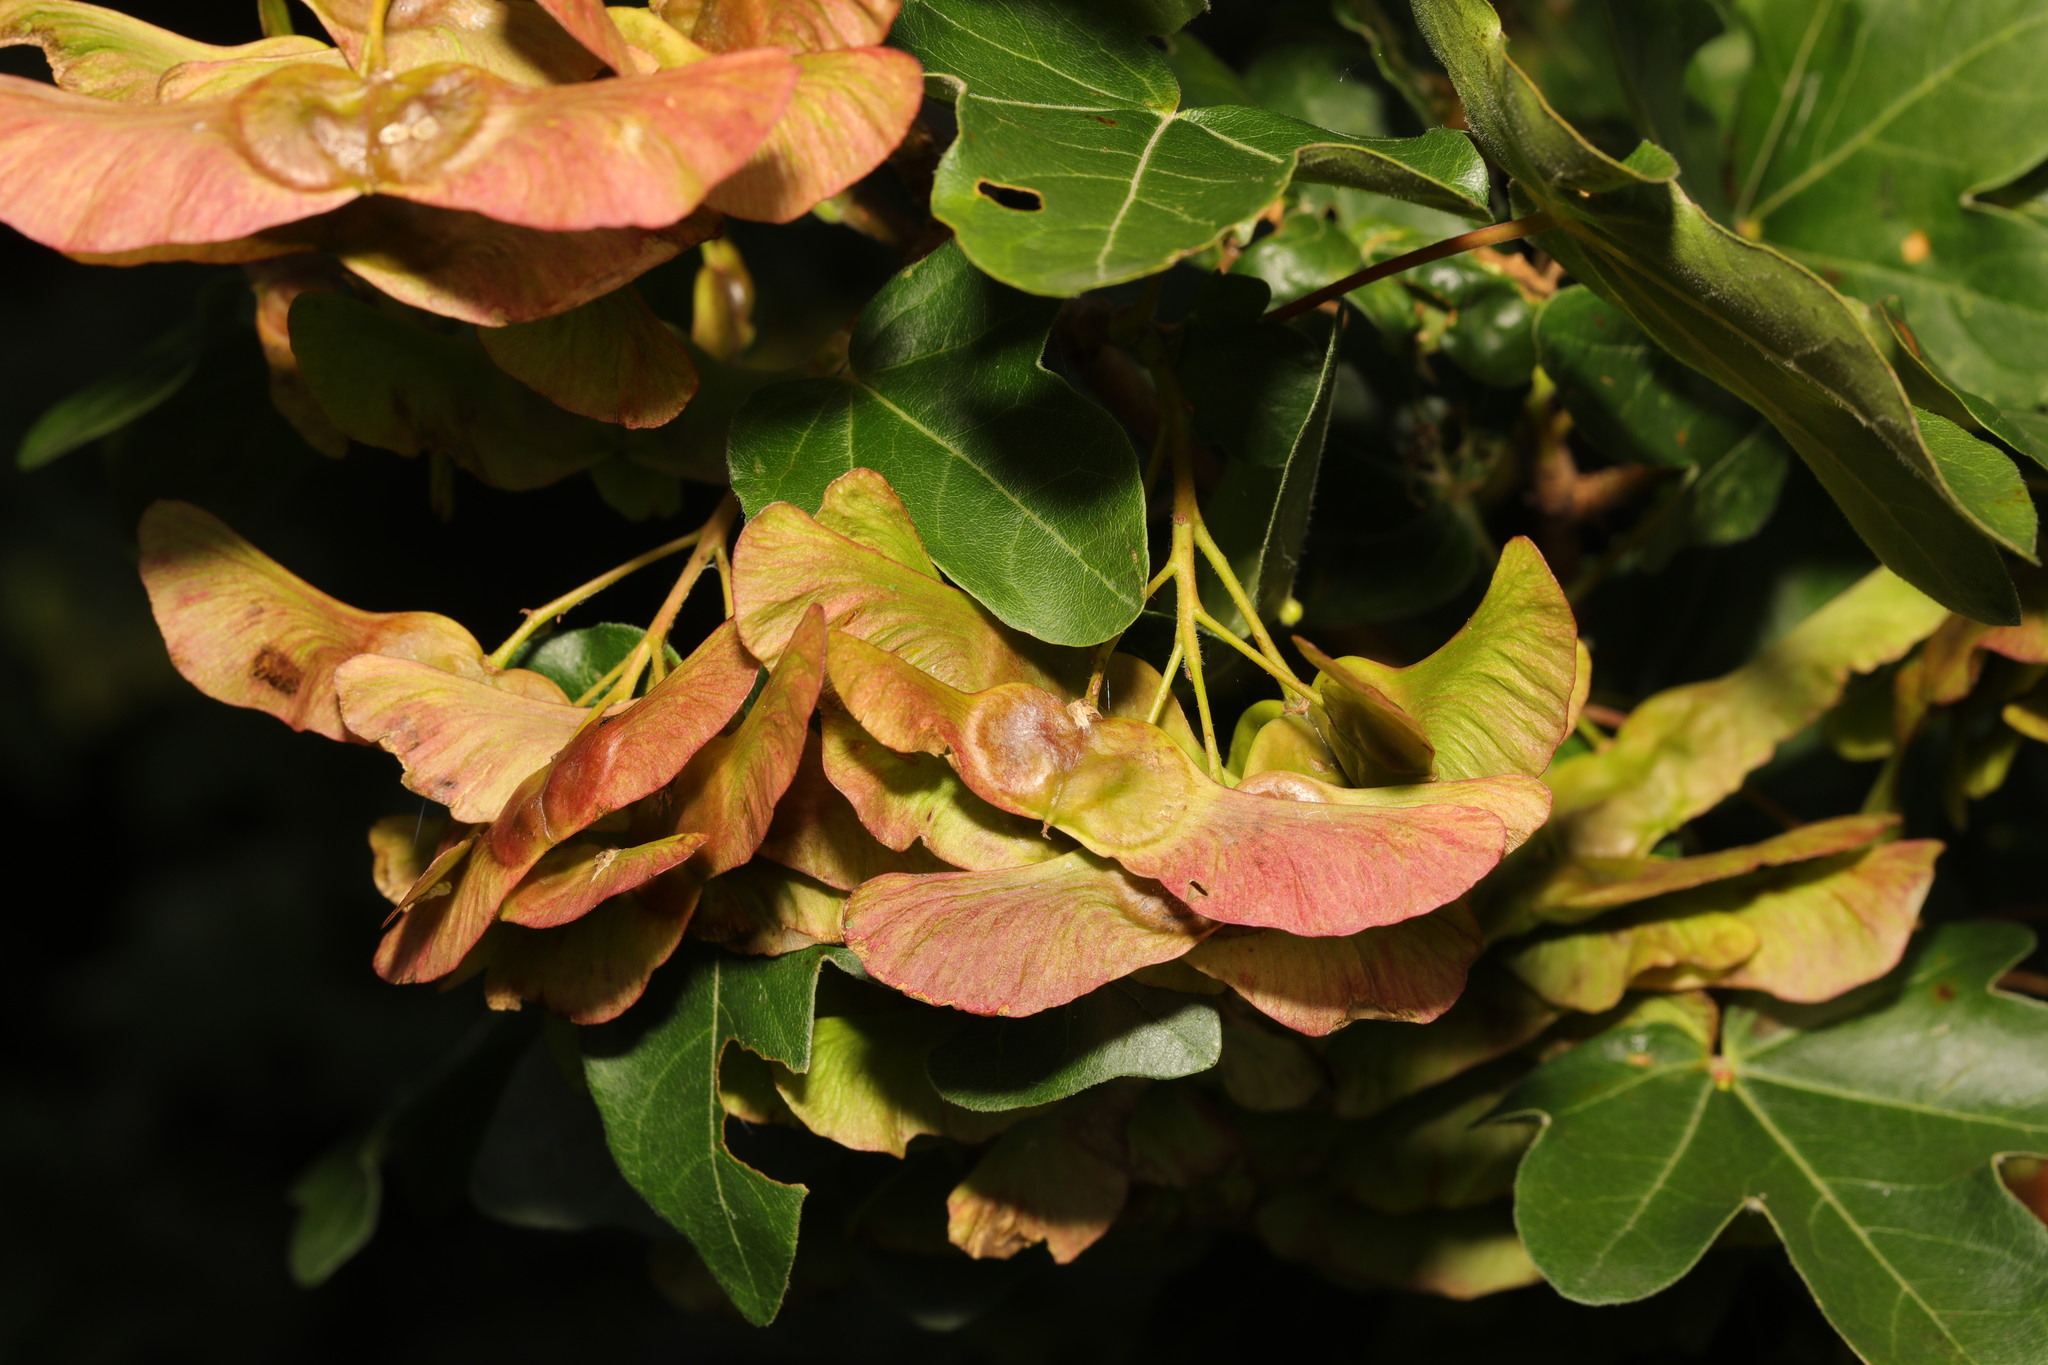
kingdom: Plantae
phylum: Tracheophyta
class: Magnoliopsida
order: Sapindales
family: Sapindaceae
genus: Acer
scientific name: Acer campestre
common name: Field maple
